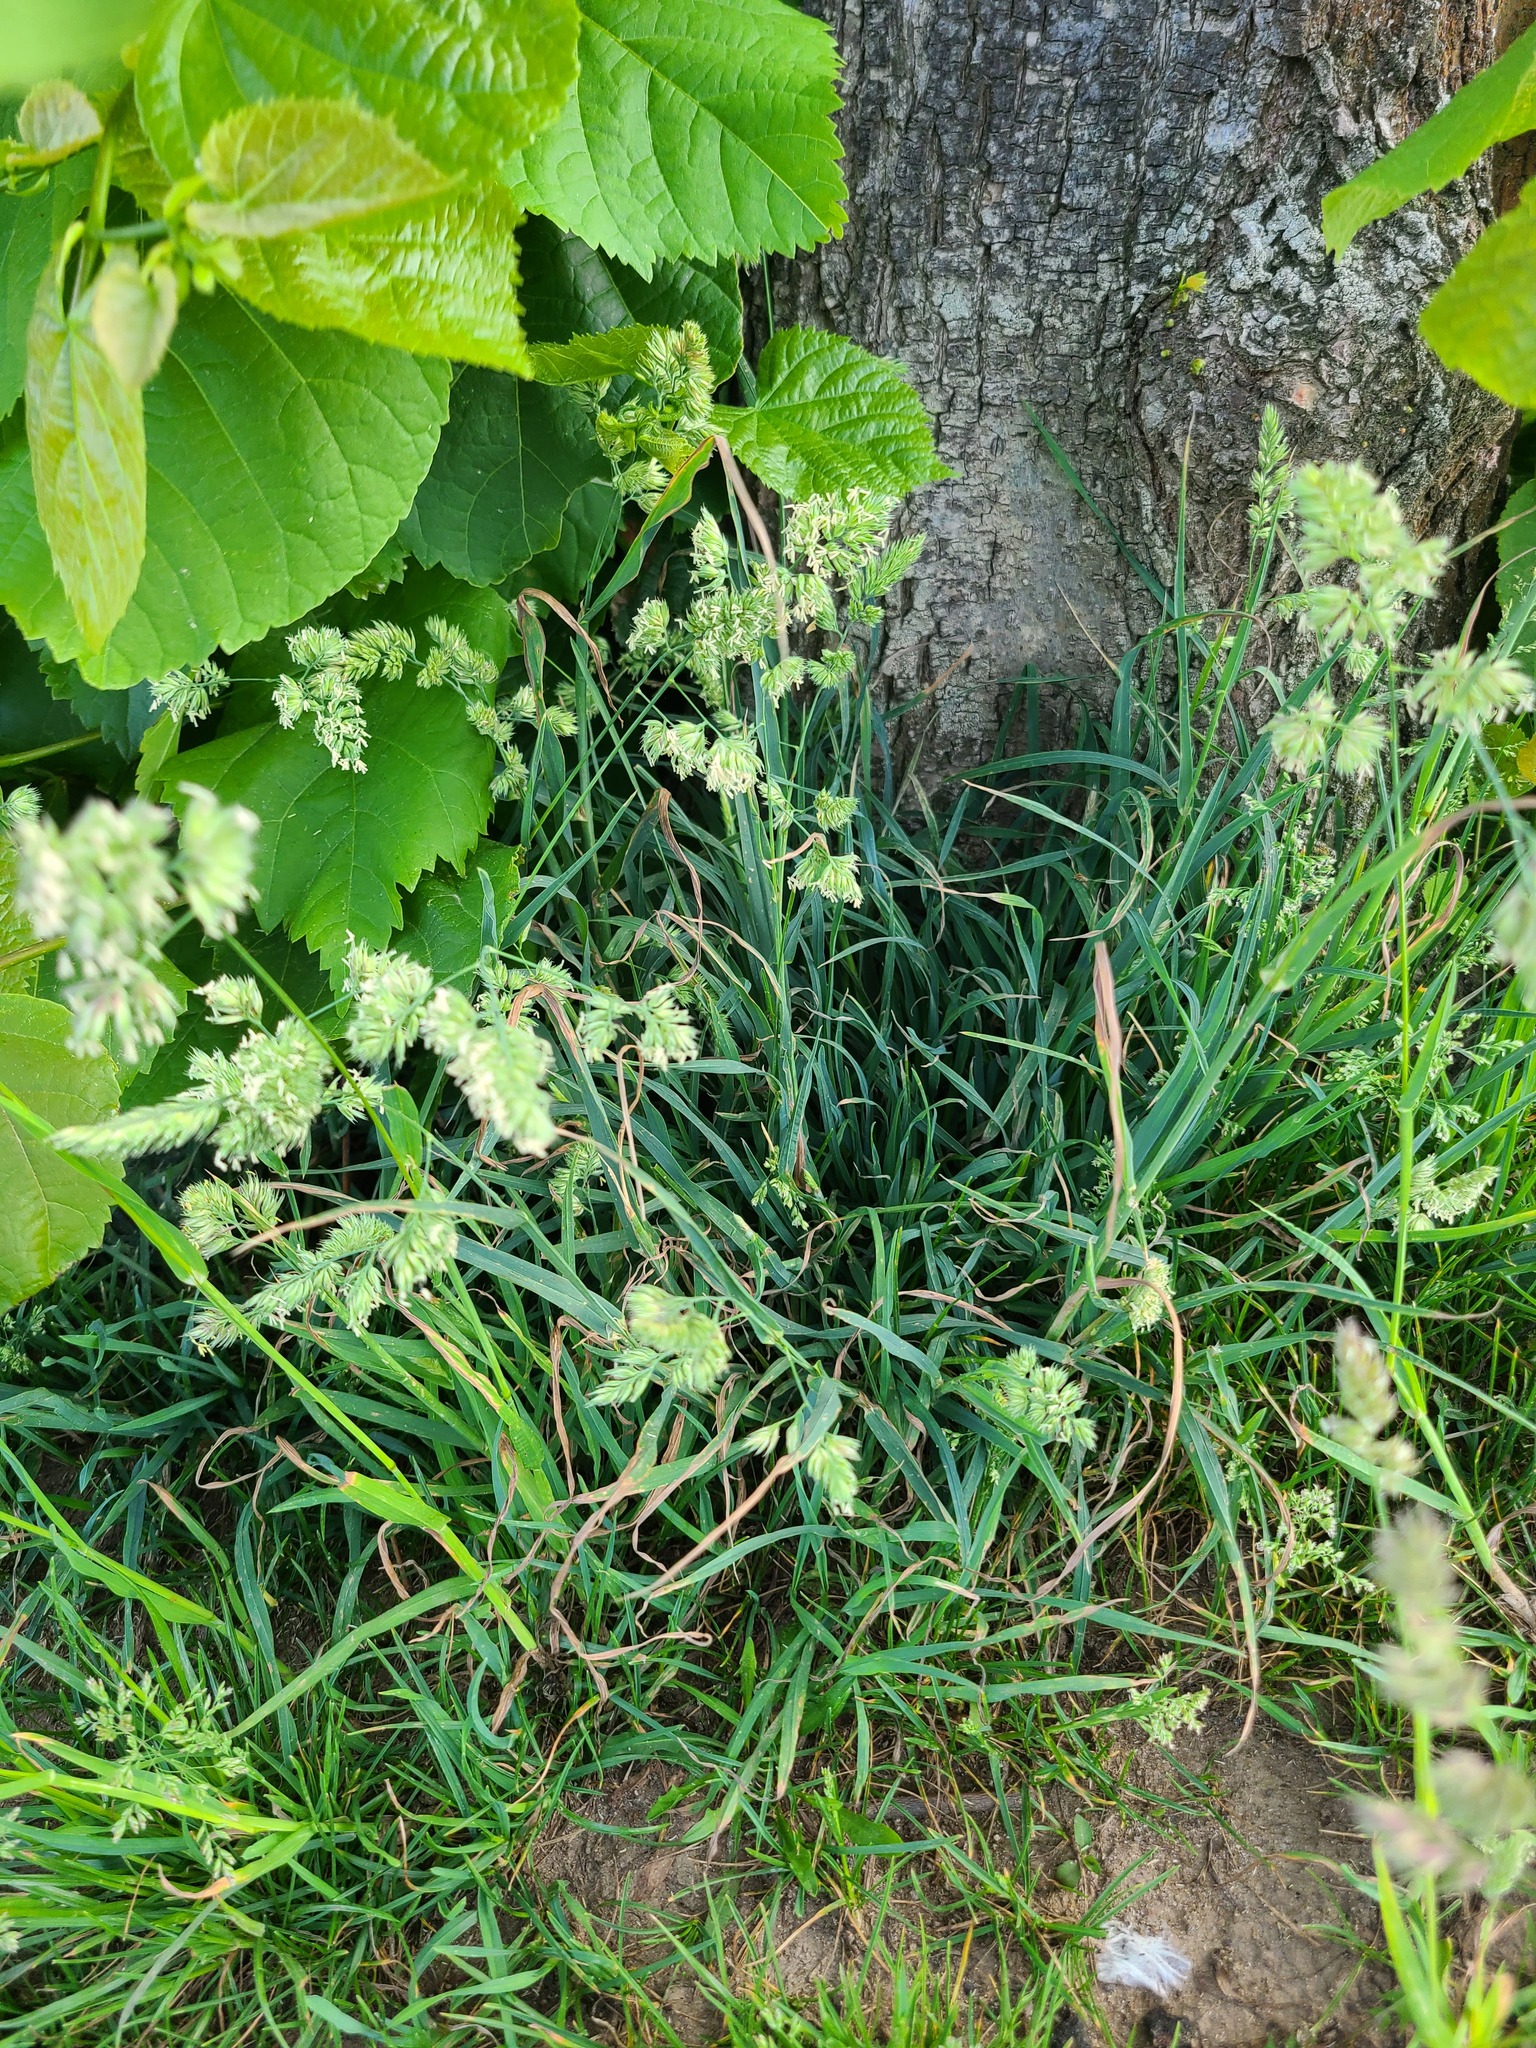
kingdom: Plantae
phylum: Tracheophyta
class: Liliopsida
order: Poales
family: Poaceae
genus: Dactylis
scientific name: Dactylis glomerata
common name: Orchardgrass
